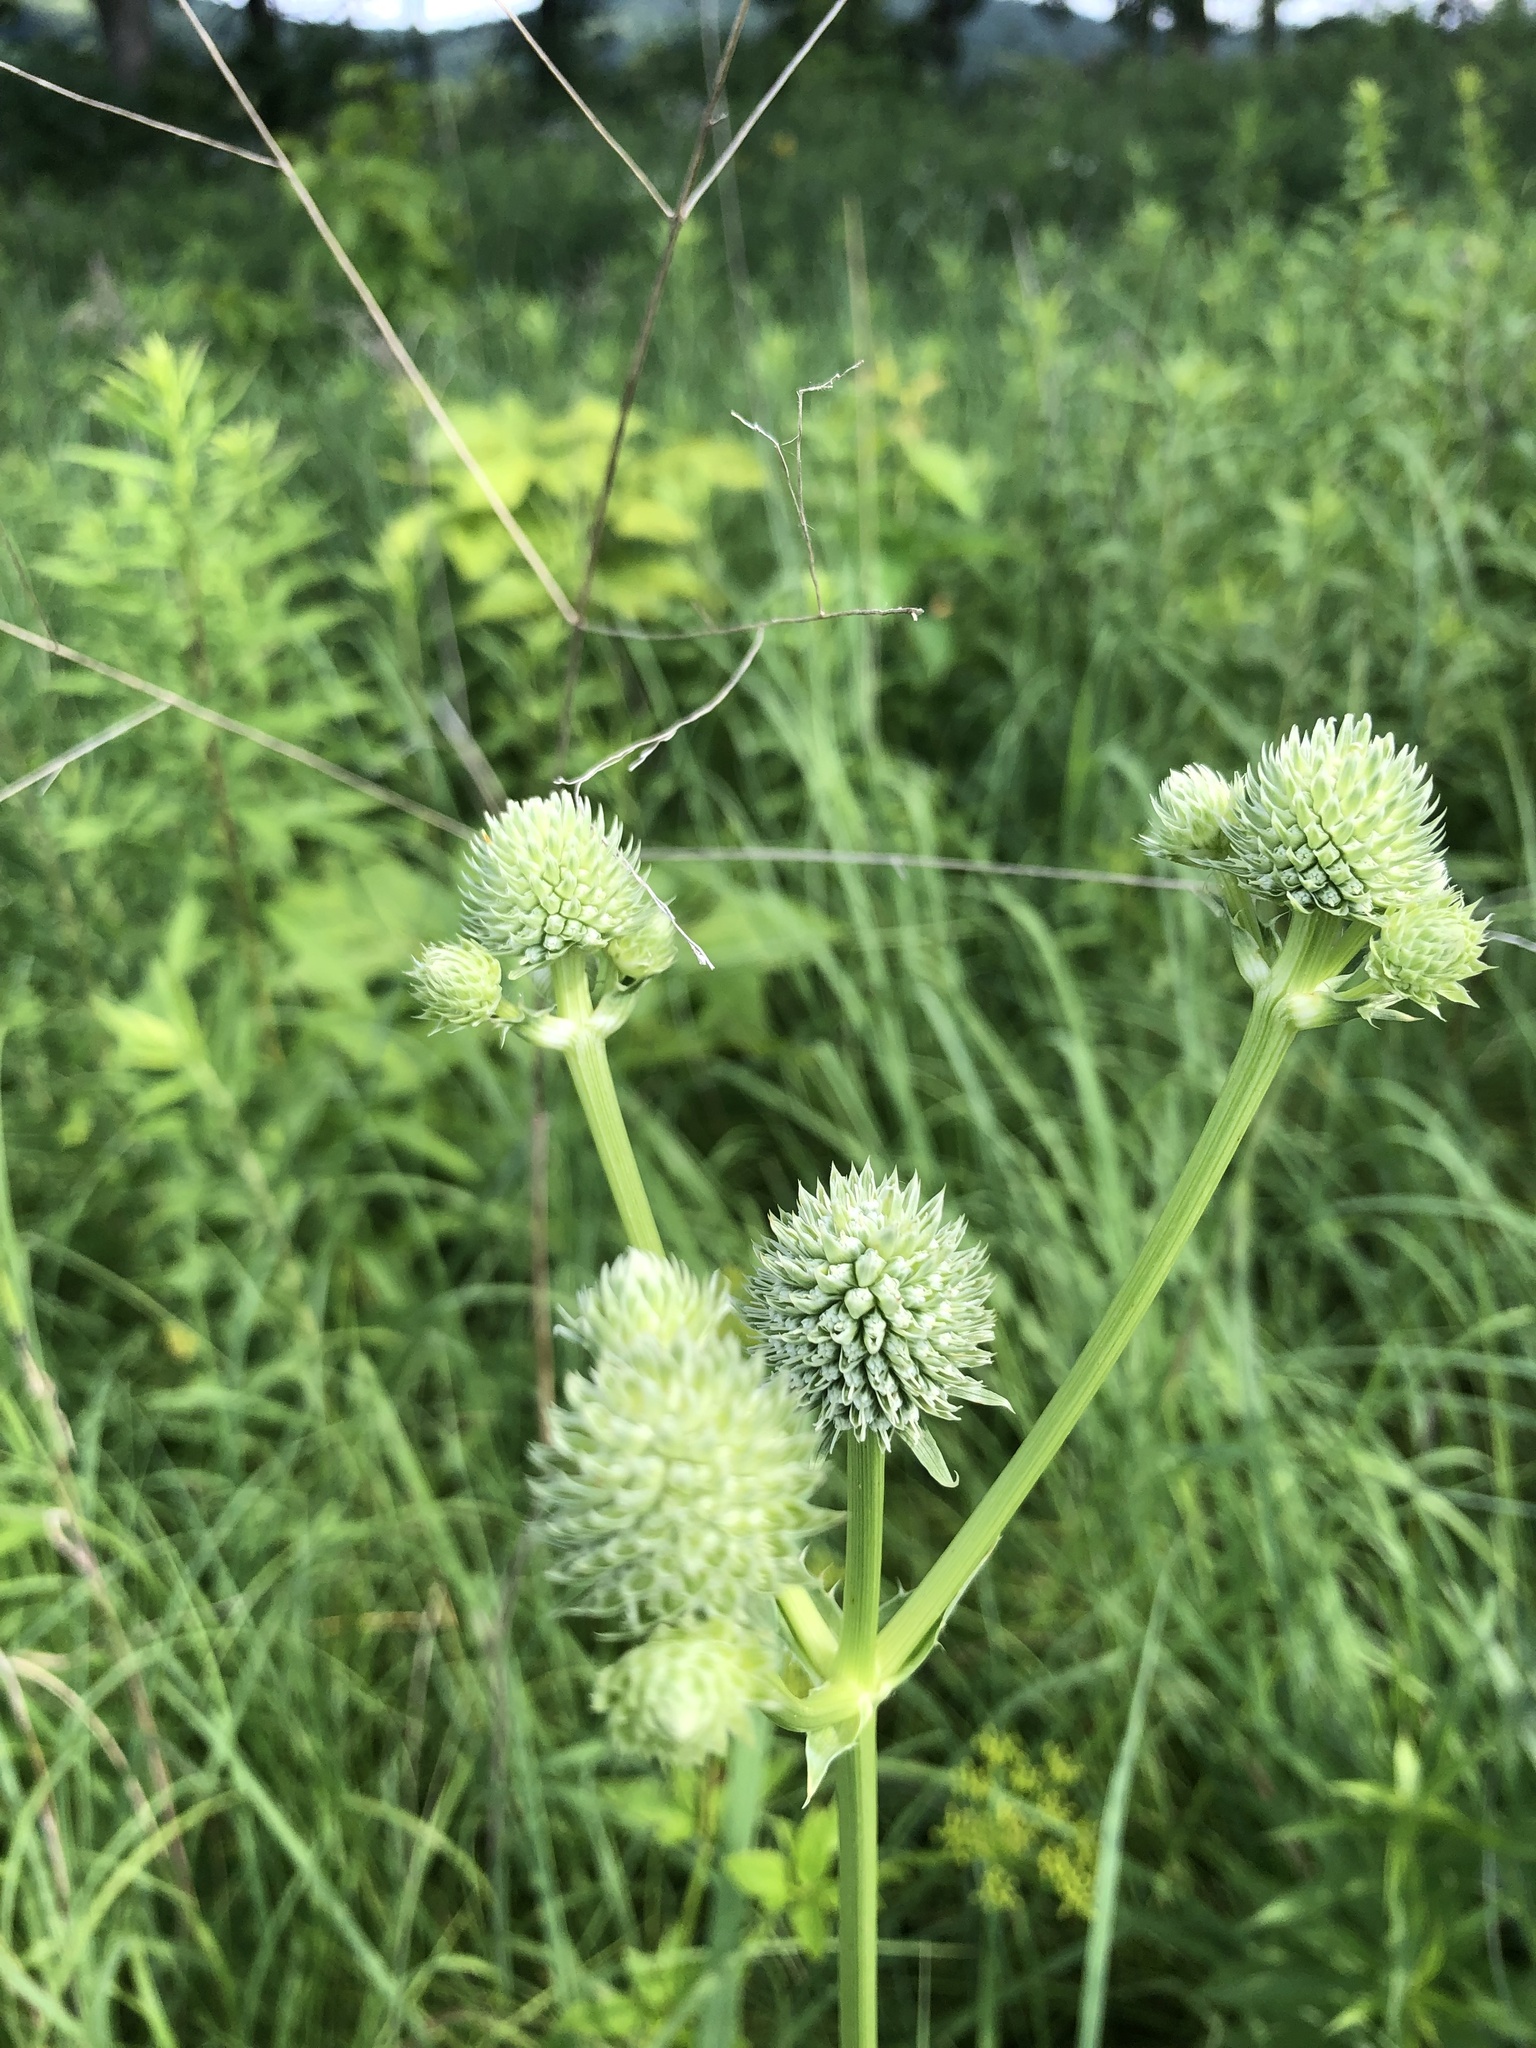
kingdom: Plantae
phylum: Tracheophyta
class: Magnoliopsida
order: Apiales
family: Apiaceae
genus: Eryngium
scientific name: Eryngium yuccifolium
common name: Button eryngo
